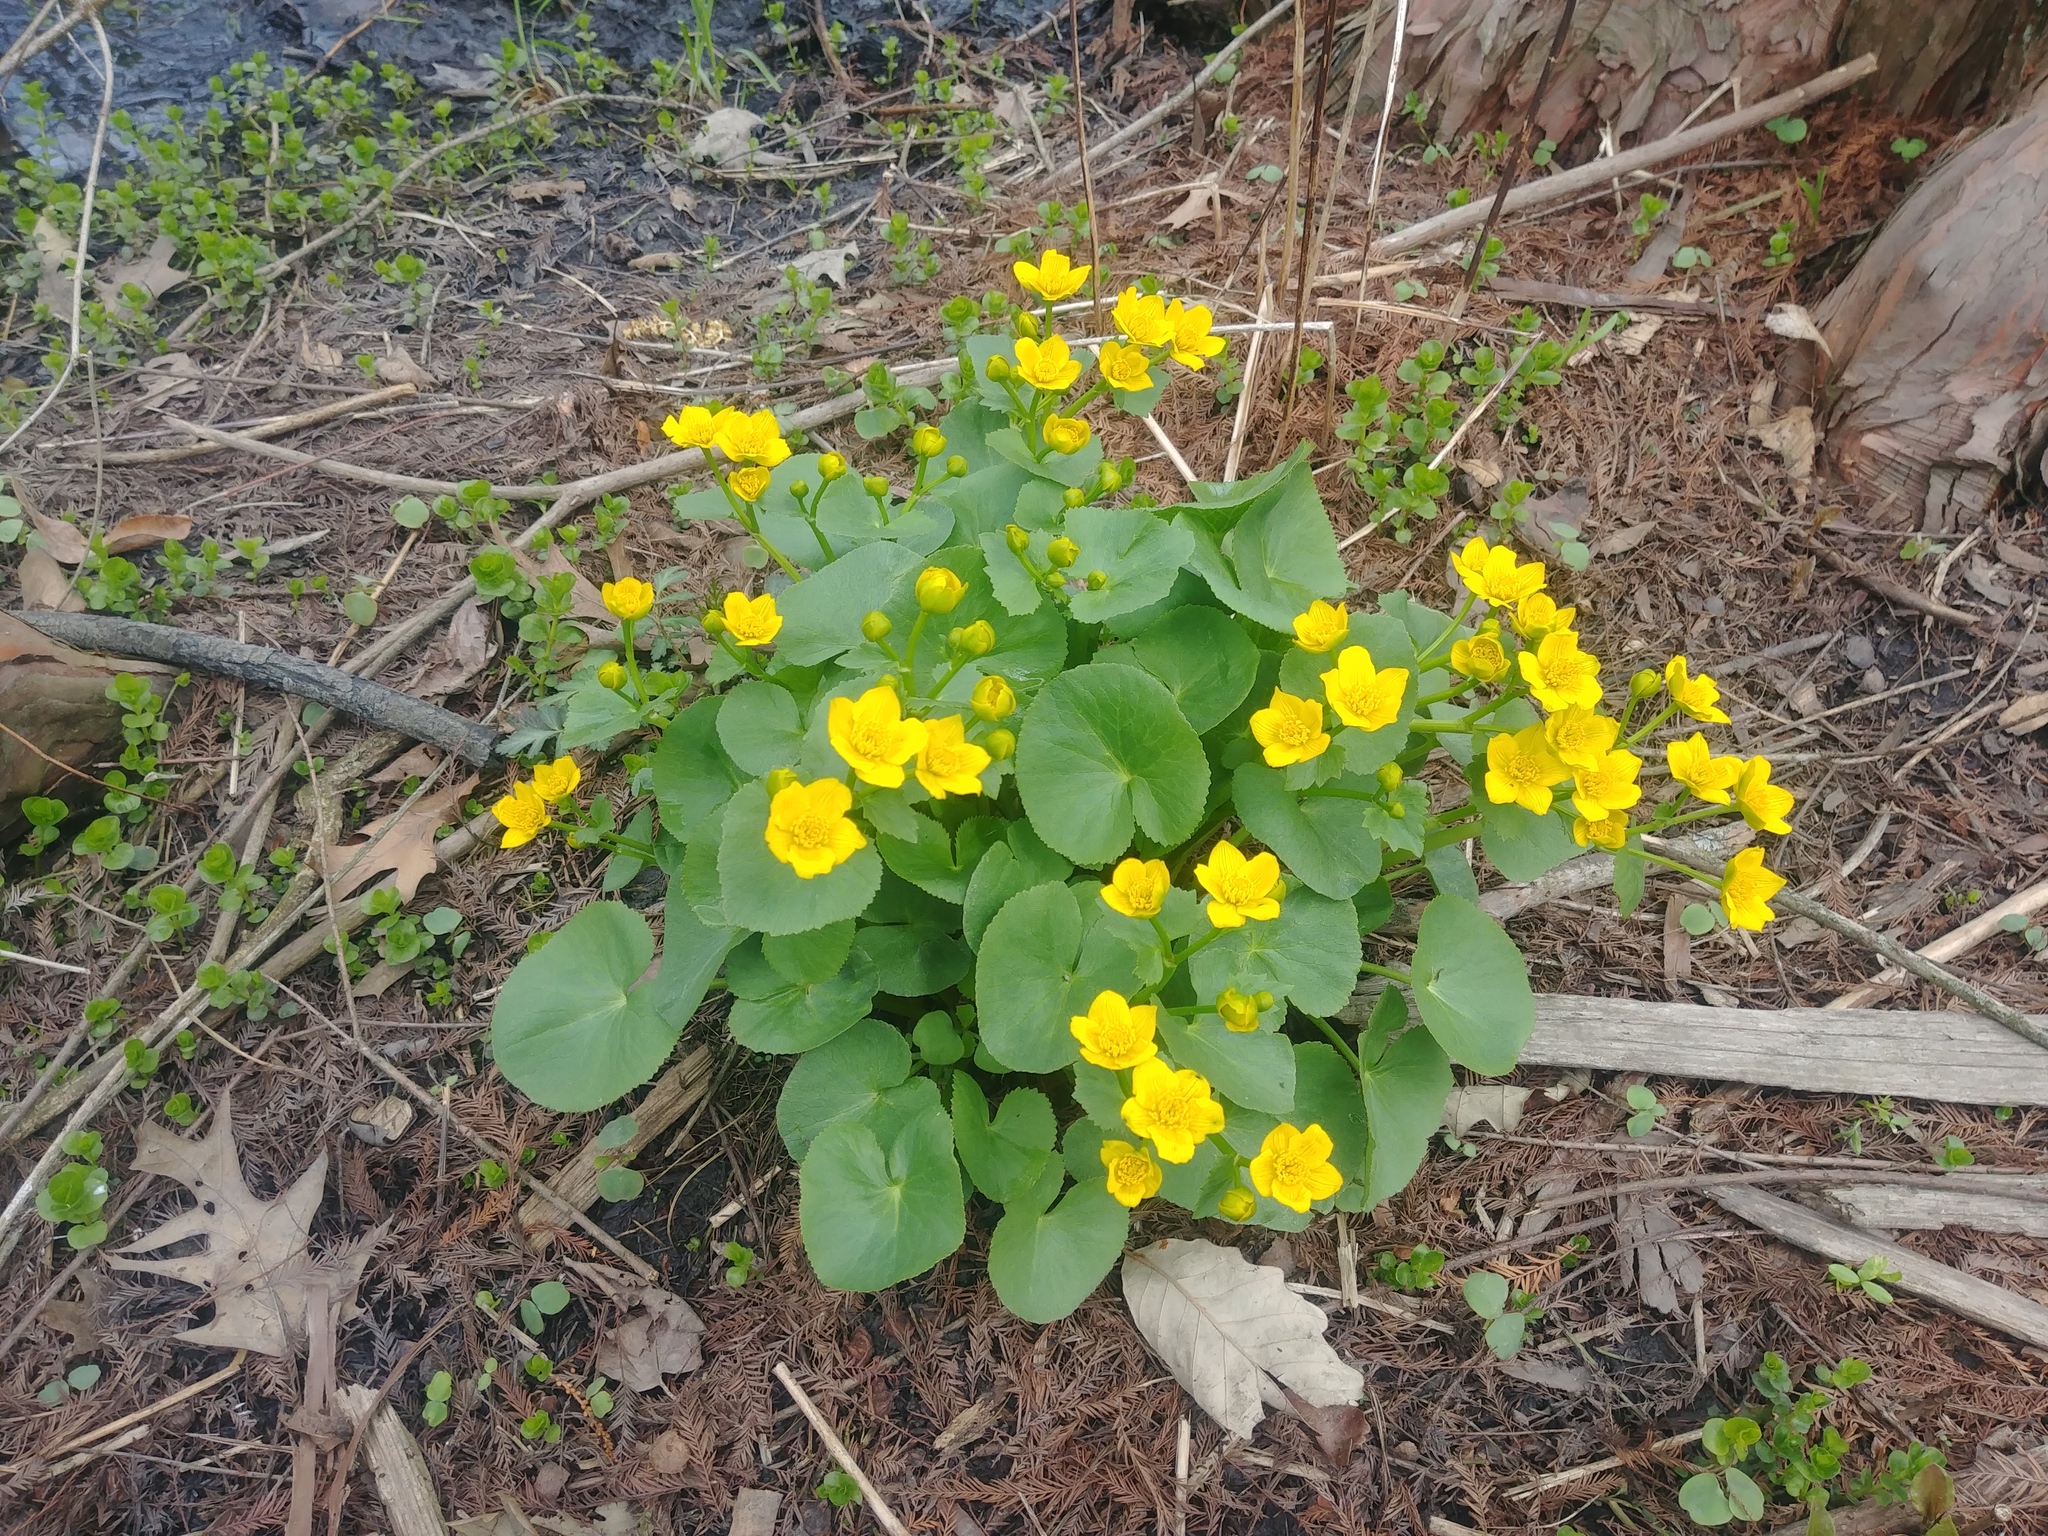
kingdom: Plantae
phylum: Tracheophyta
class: Magnoliopsida
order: Ranunculales
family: Ranunculaceae
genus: Caltha
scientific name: Caltha palustris
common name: Marsh marigold
